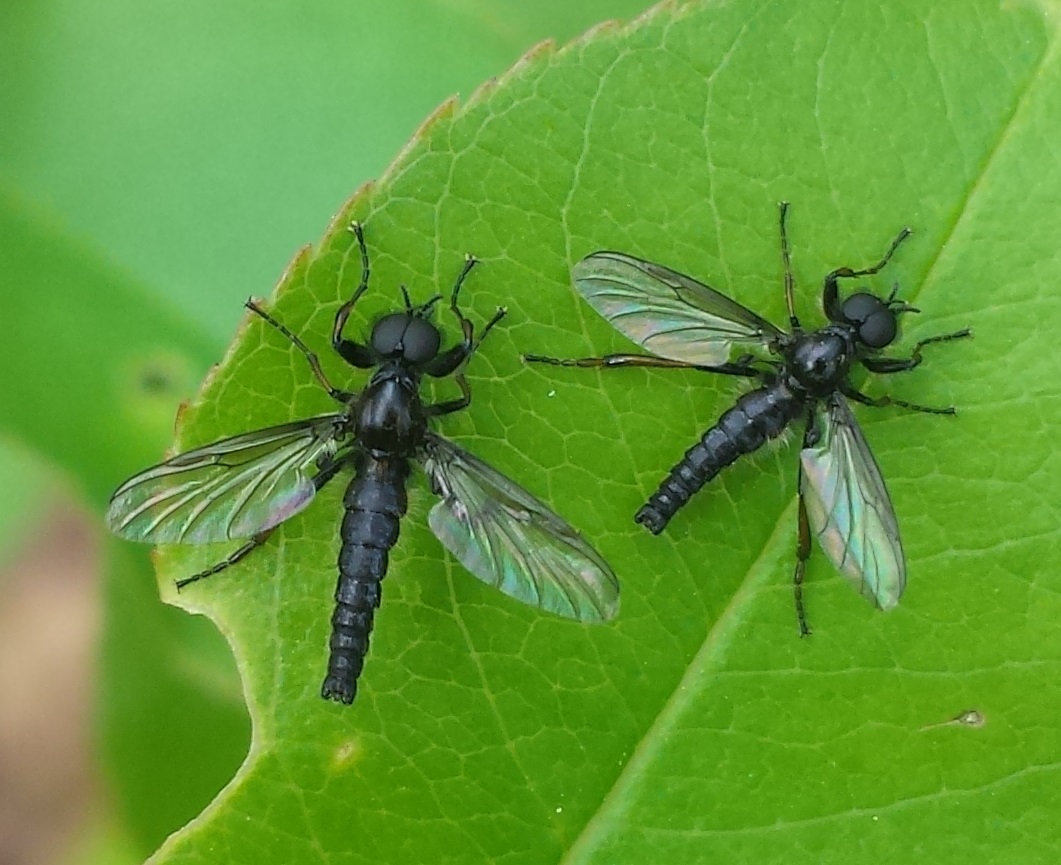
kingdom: Animalia
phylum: Arthropoda
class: Insecta
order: Diptera
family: Bibionidae
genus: Bibio
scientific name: Bibio lanigerus
